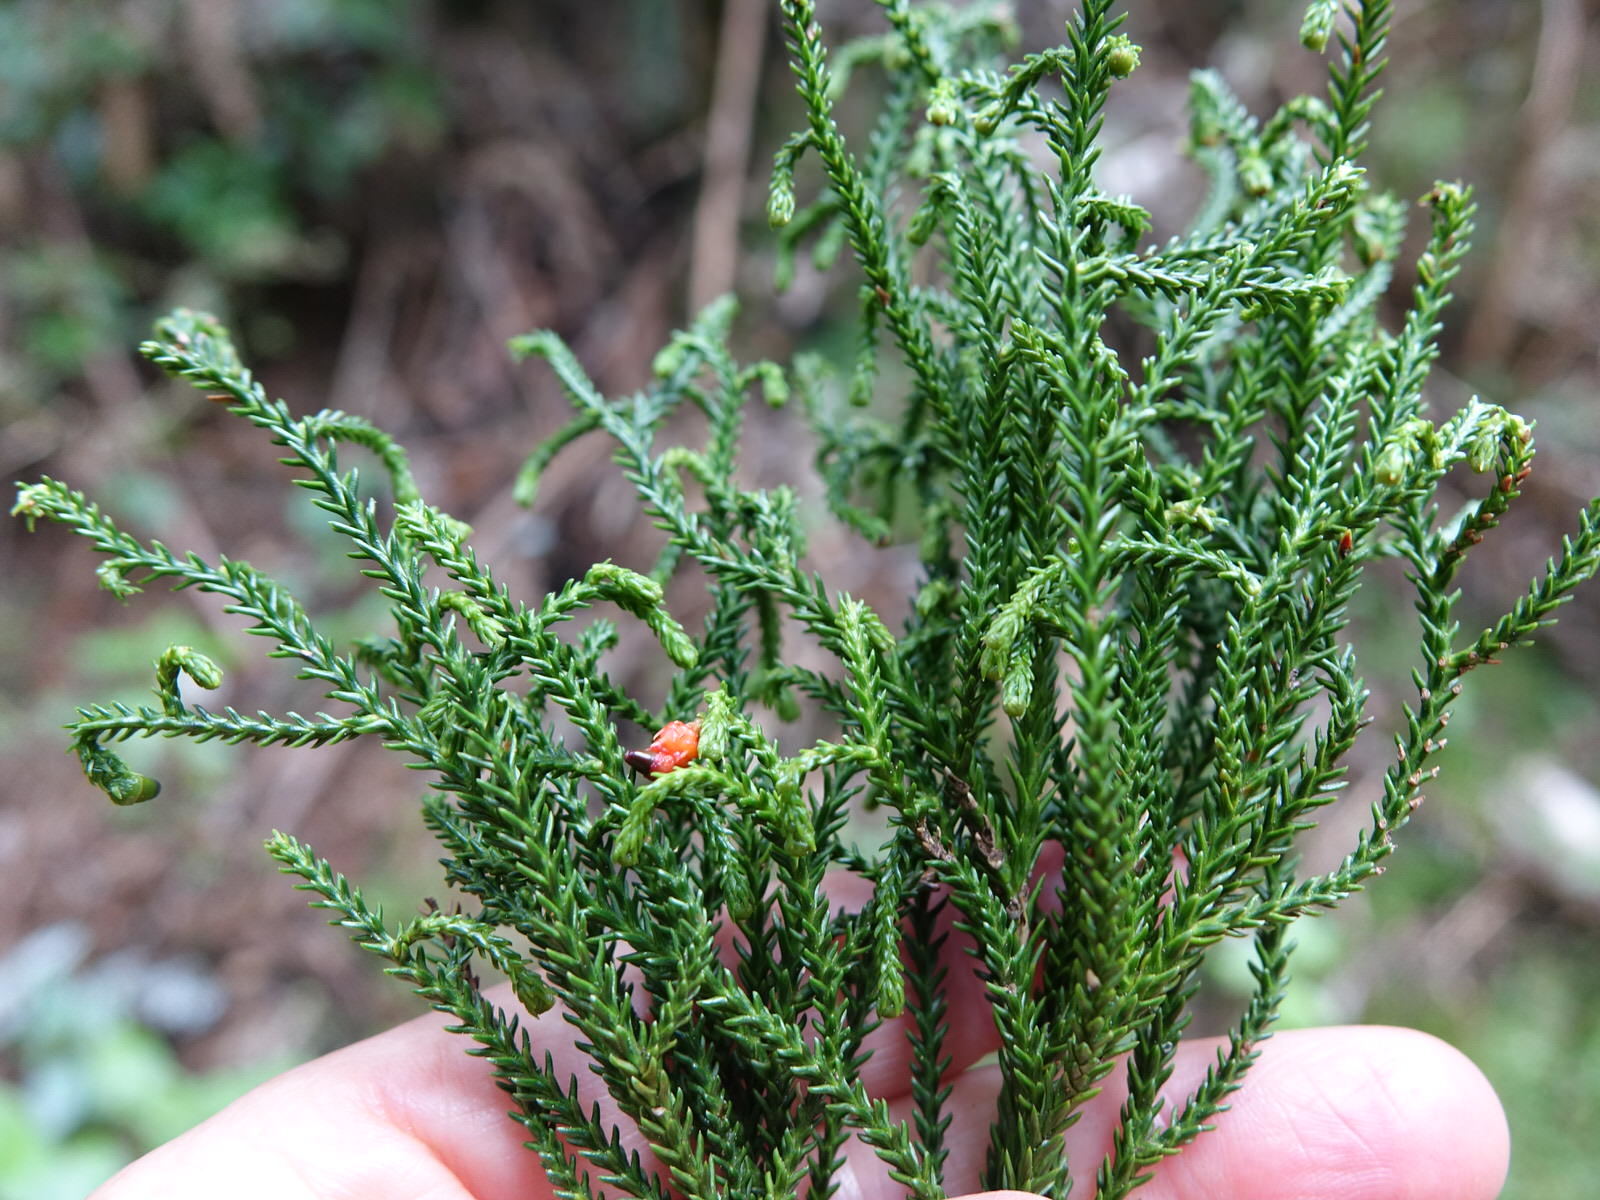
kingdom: Plantae
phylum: Tracheophyta
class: Pinopsida
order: Pinales
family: Podocarpaceae
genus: Dacrydium
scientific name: Dacrydium cupressinum
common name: Red pine
